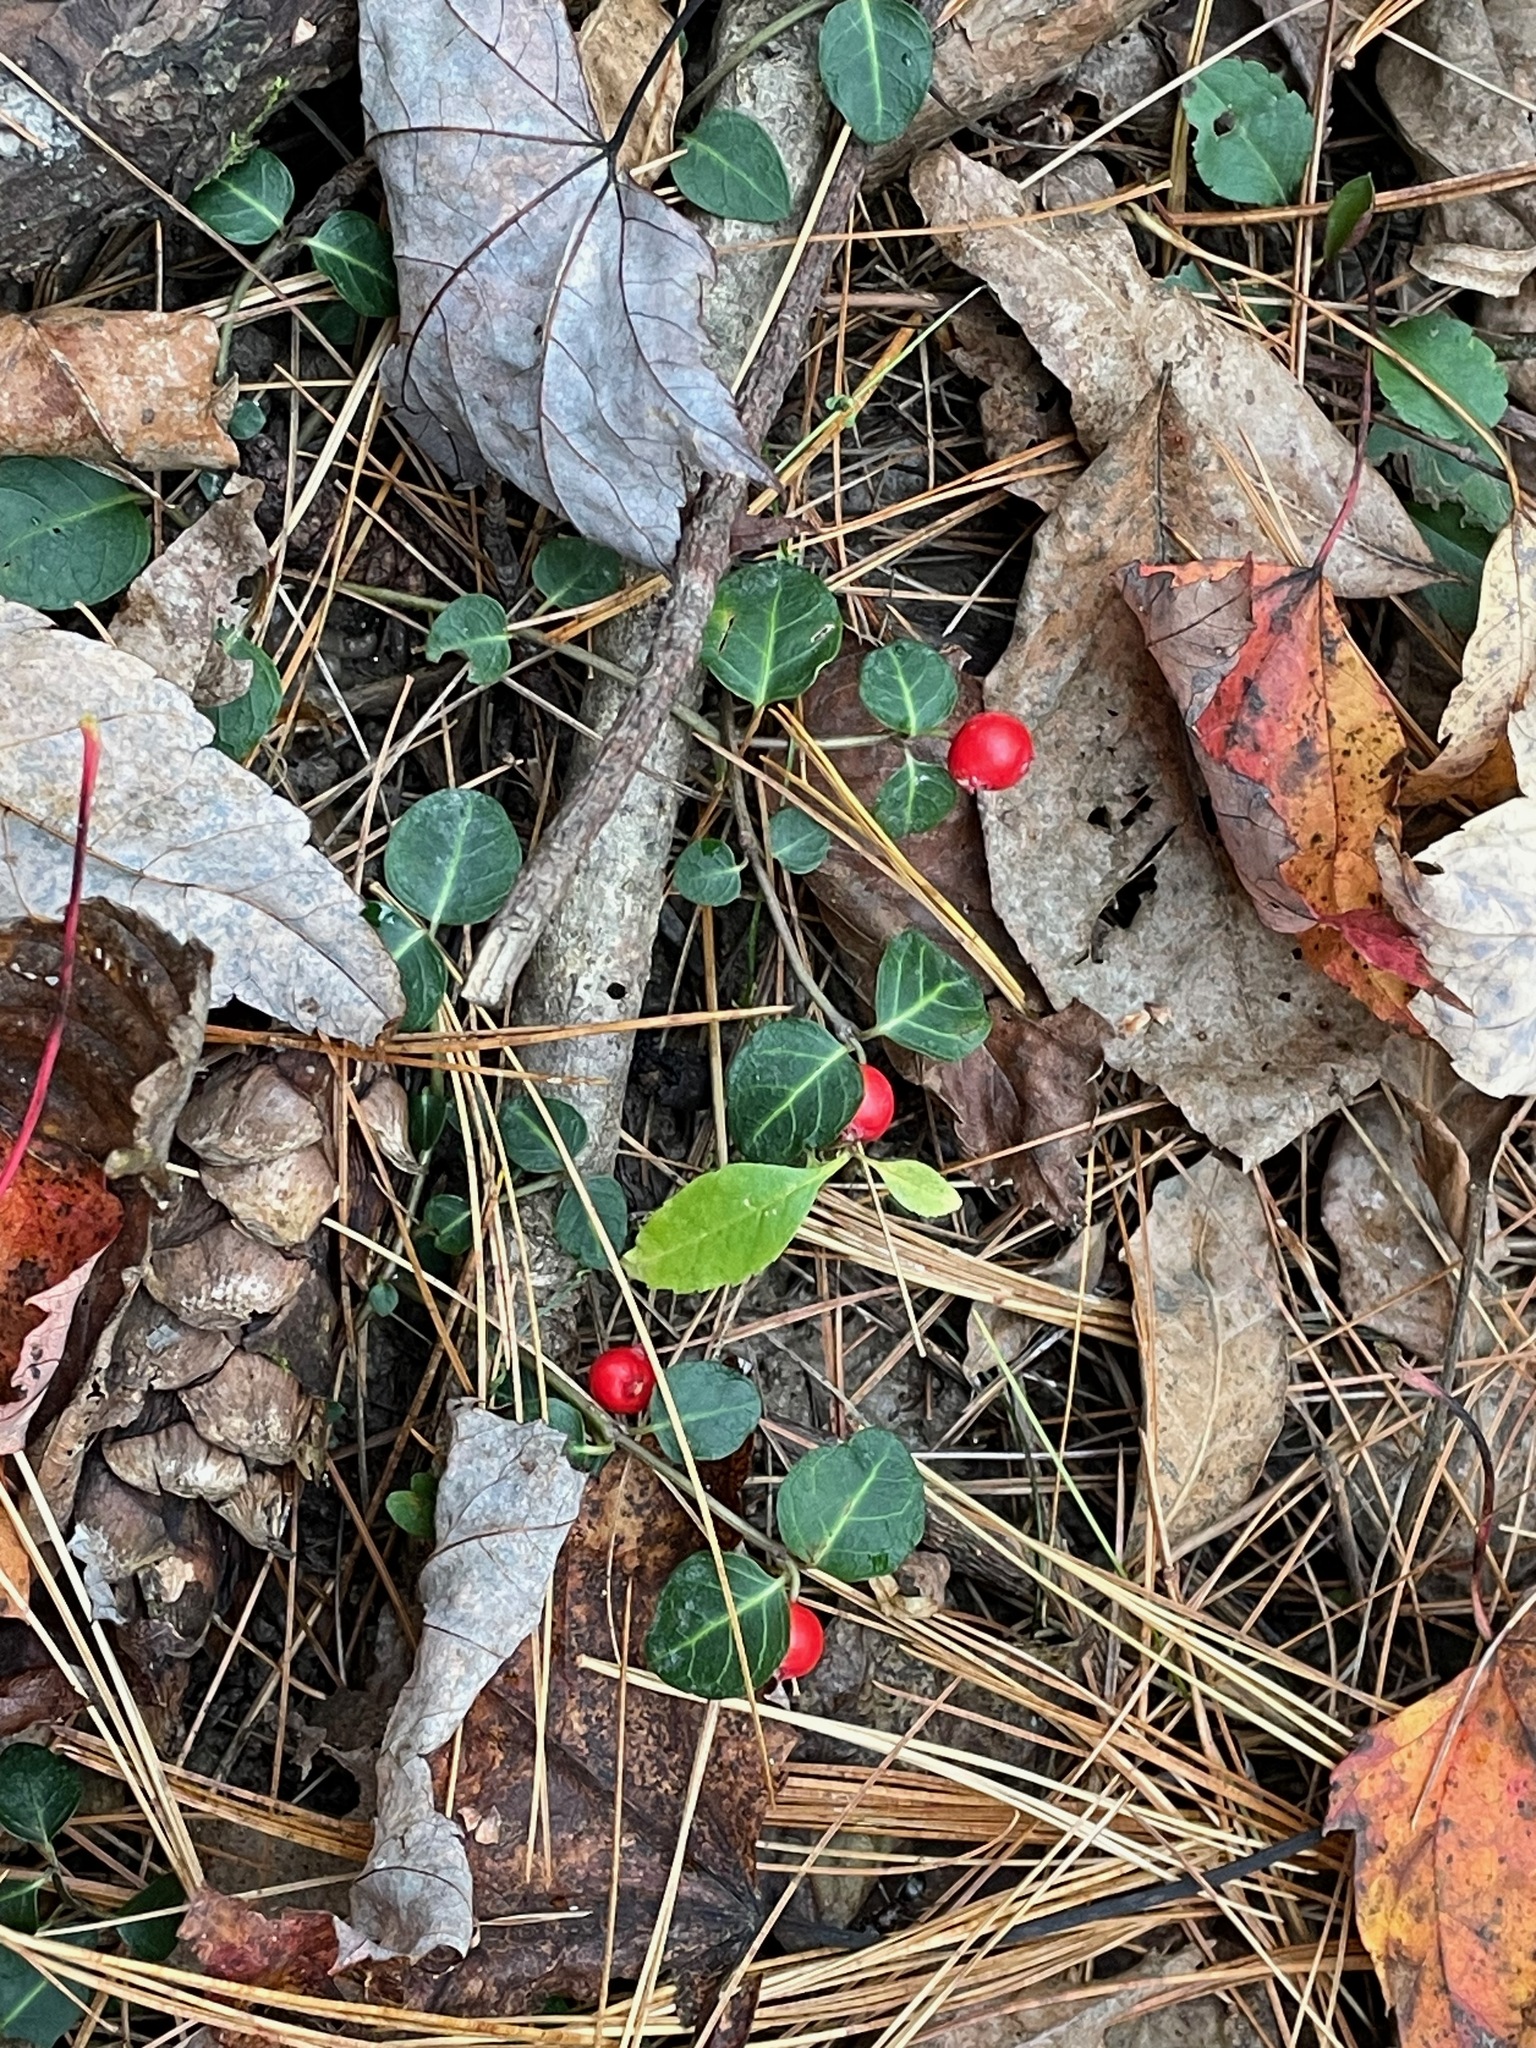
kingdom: Plantae
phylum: Tracheophyta
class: Magnoliopsida
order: Gentianales
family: Rubiaceae
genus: Mitchella
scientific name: Mitchella repens
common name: Partridge-berry
